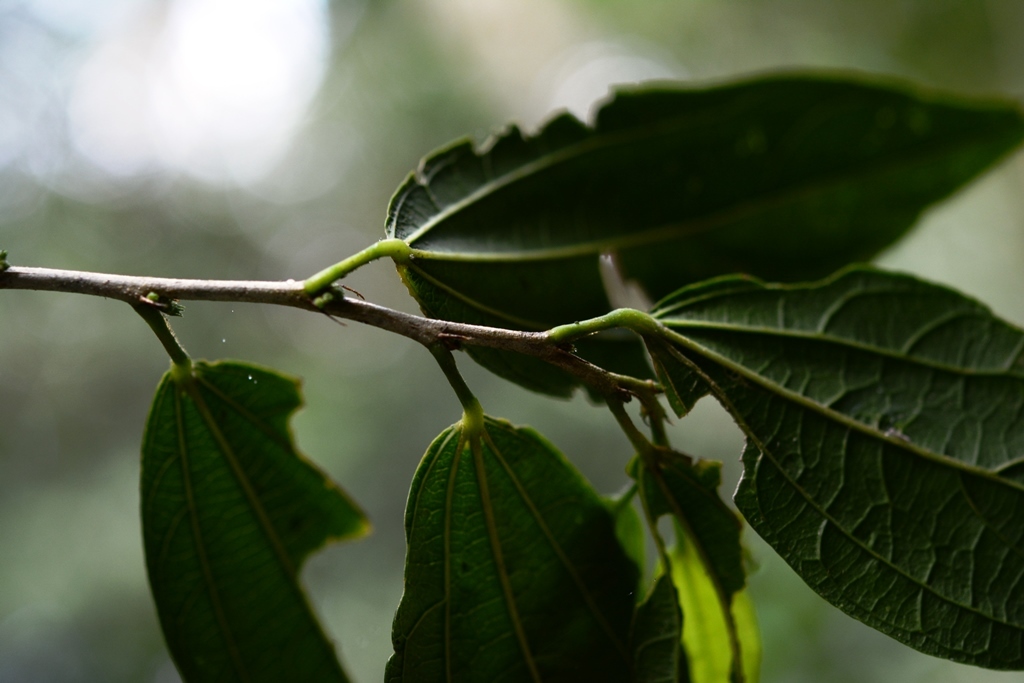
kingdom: Plantae
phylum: Tracheophyta
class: Magnoliopsida
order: Malvales
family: Malvaceae
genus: Hibiscus
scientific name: Hibiscus purpusii
